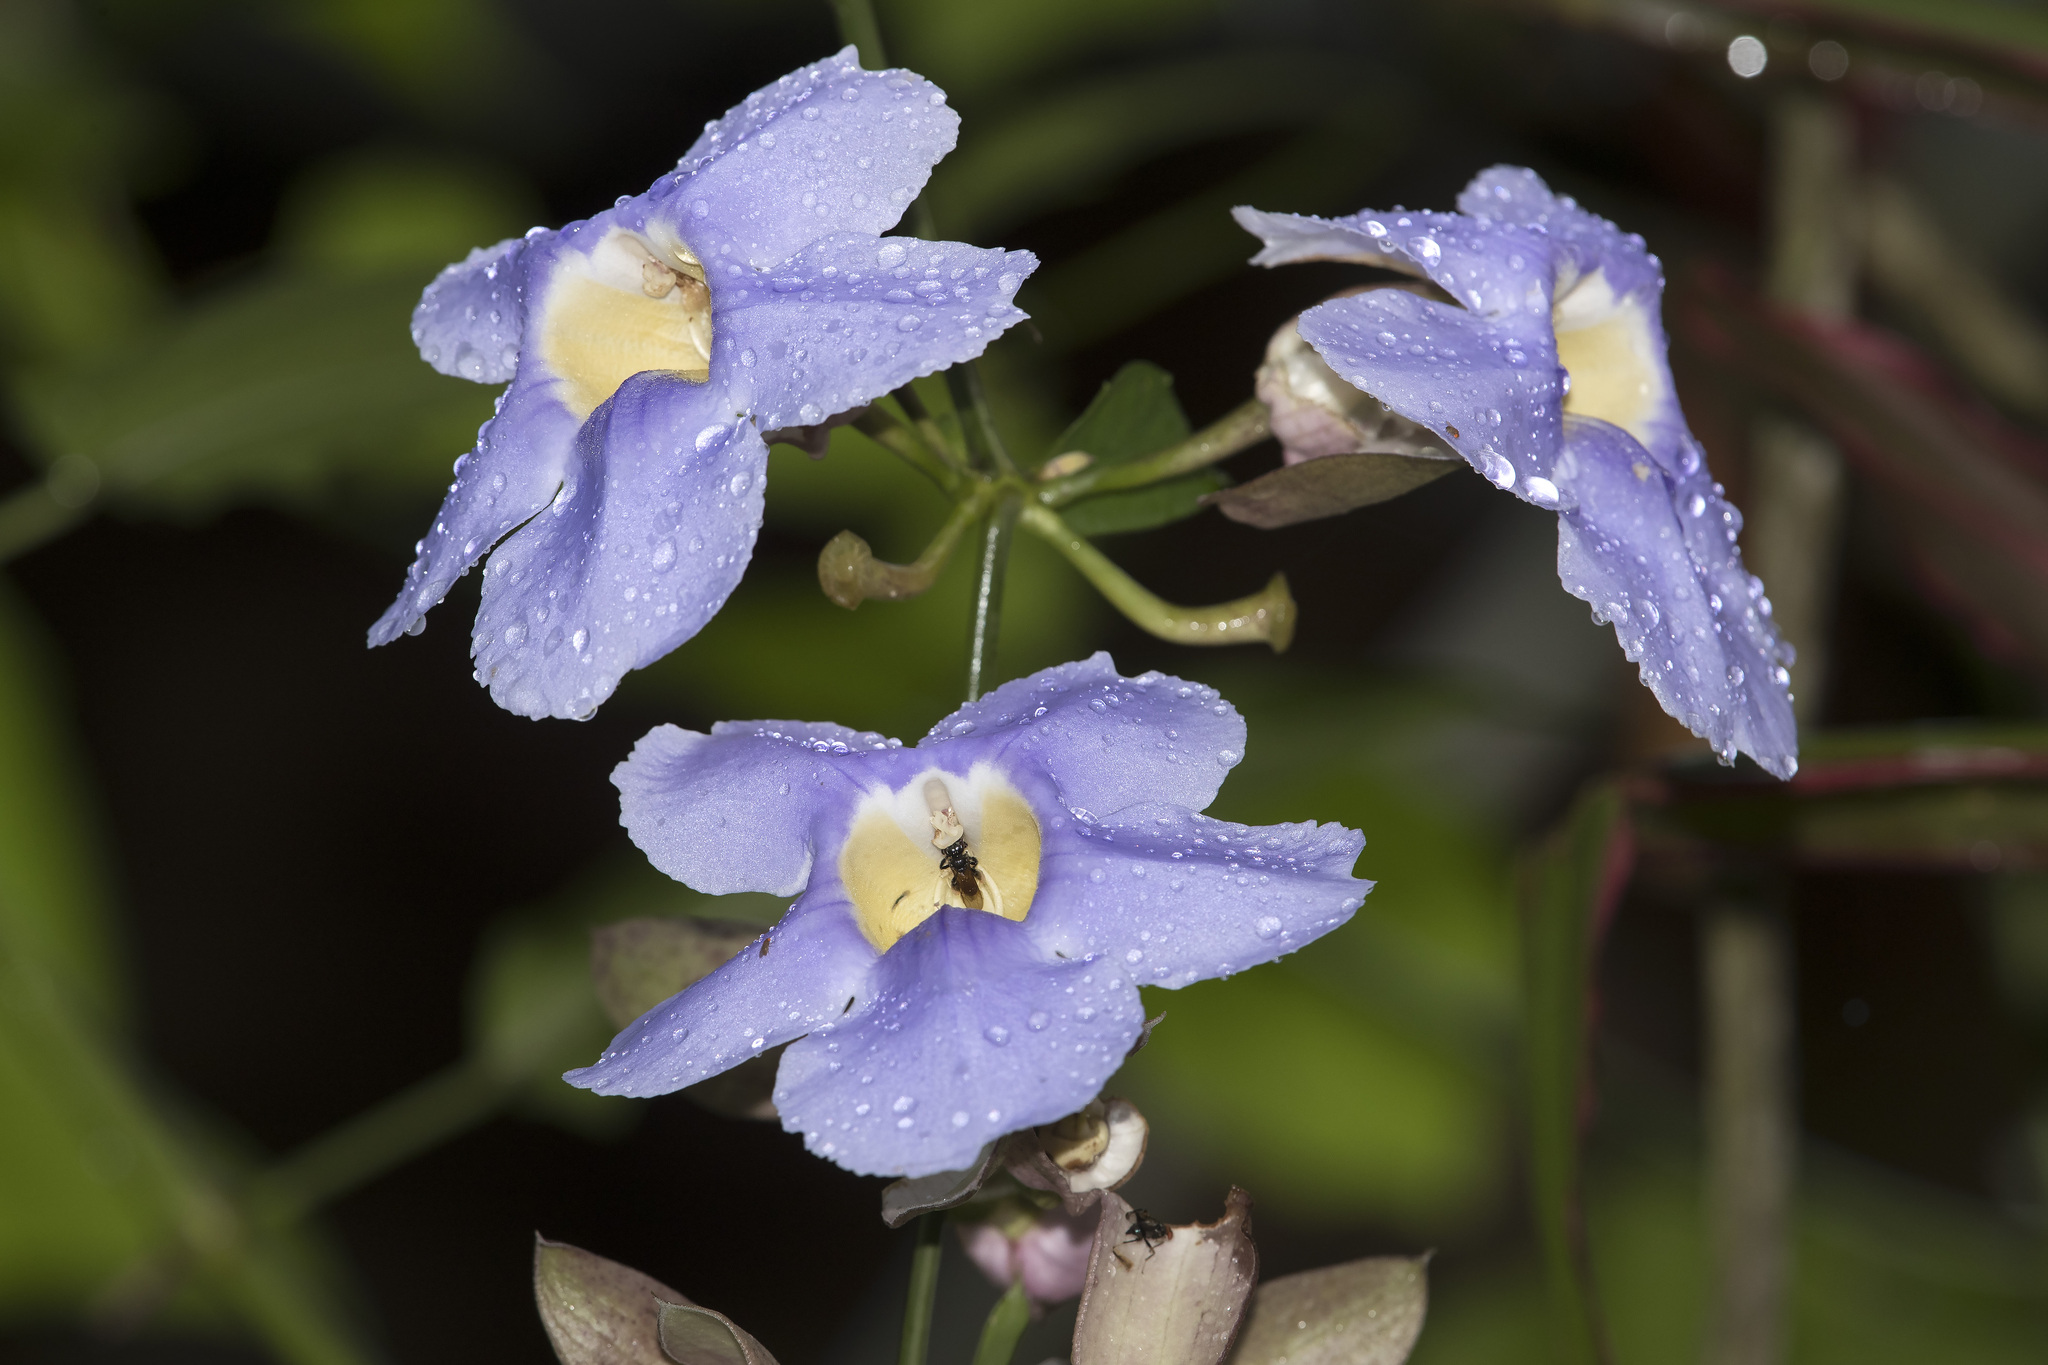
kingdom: Plantae
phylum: Tracheophyta
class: Magnoliopsida
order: Lamiales
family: Acanthaceae
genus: Thunbergia
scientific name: Thunbergia grandiflora
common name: Bengal trumpet
